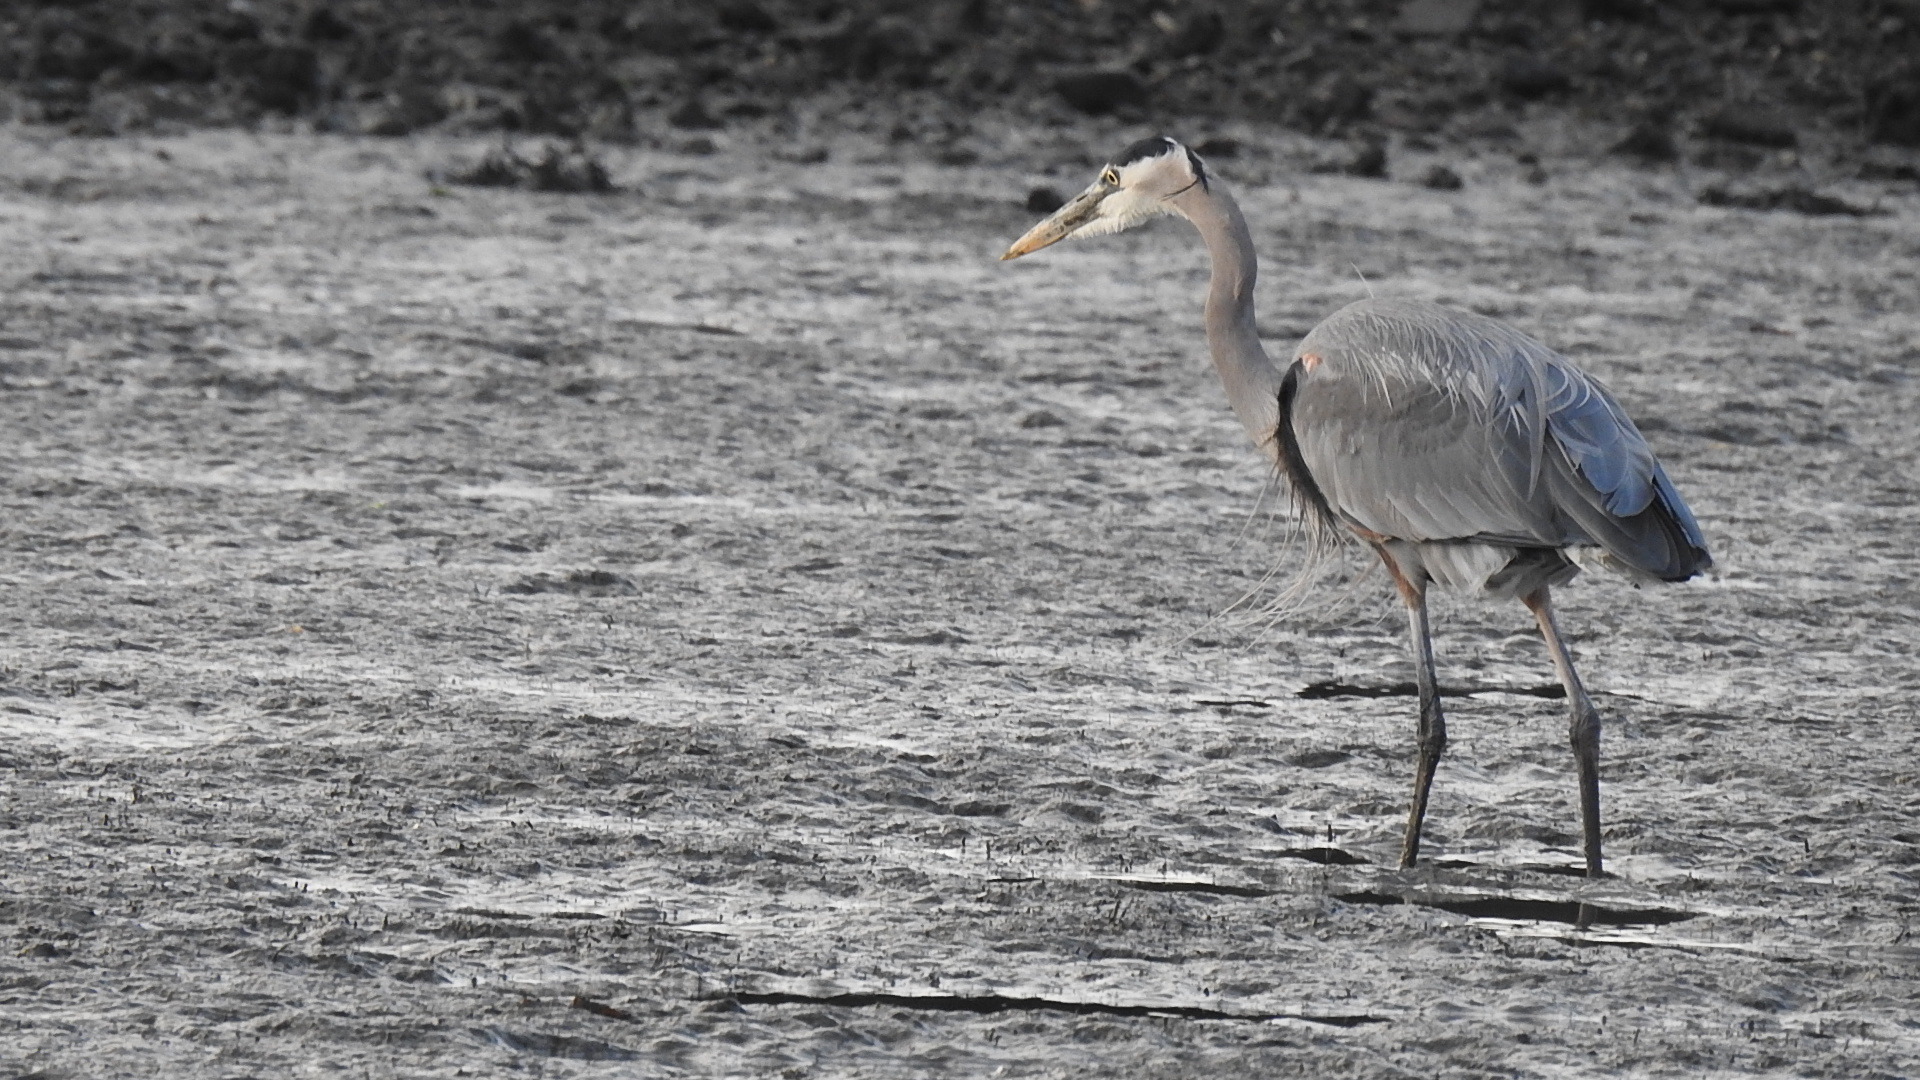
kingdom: Animalia
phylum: Chordata
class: Aves
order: Pelecaniformes
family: Ardeidae
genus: Ardea
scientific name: Ardea herodias
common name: Great blue heron
